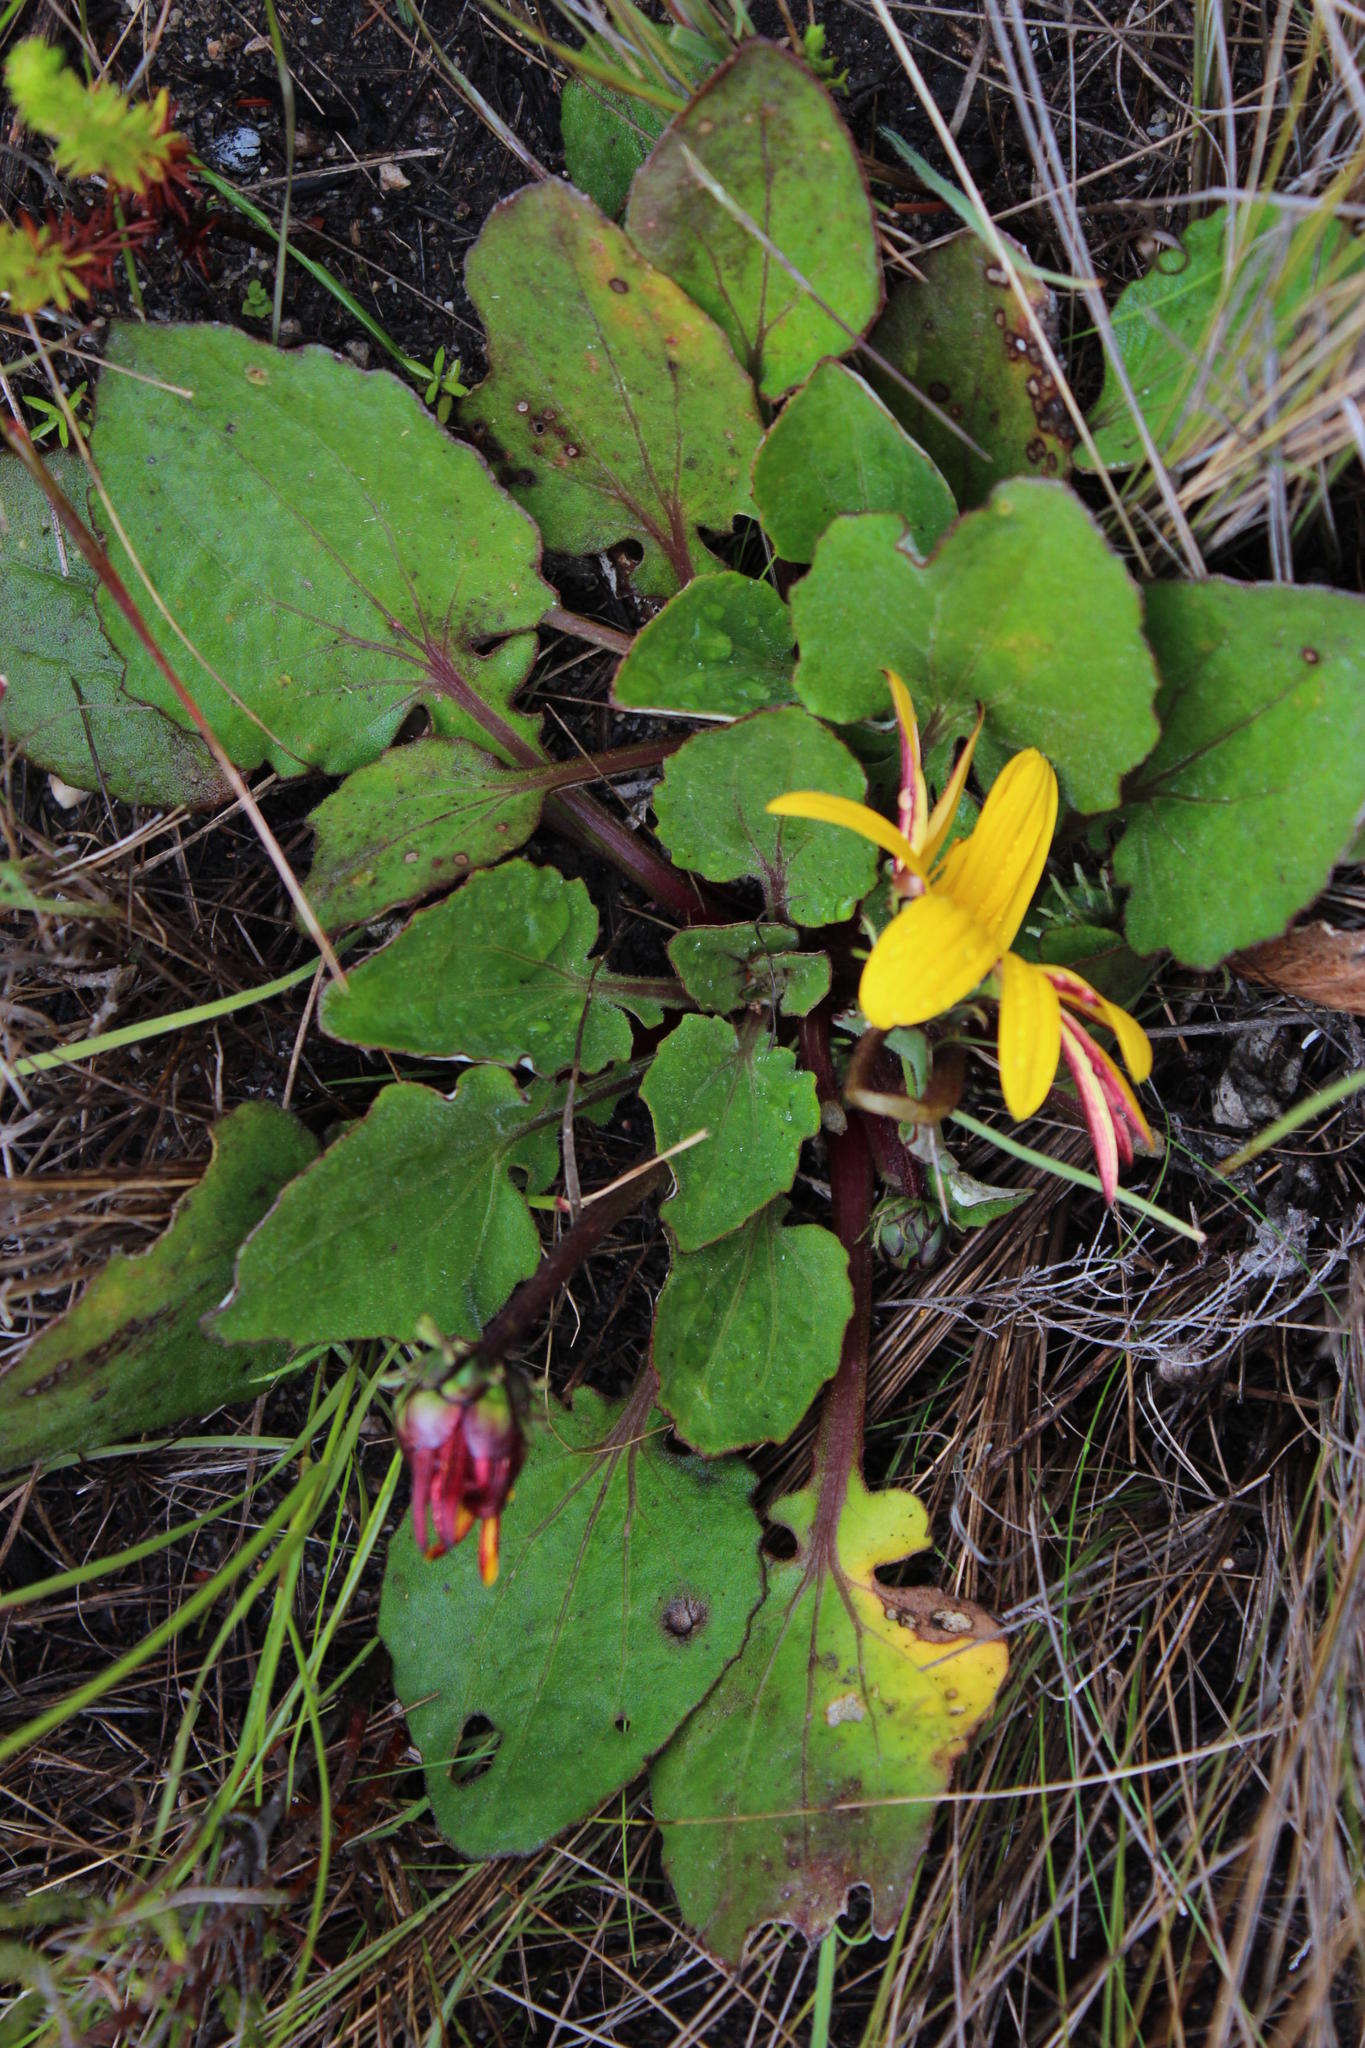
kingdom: Plantae
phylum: Tracheophyta
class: Magnoliopsida
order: Asterales
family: Asteraceae
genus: Arctotis
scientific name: Arctotis acaulis
